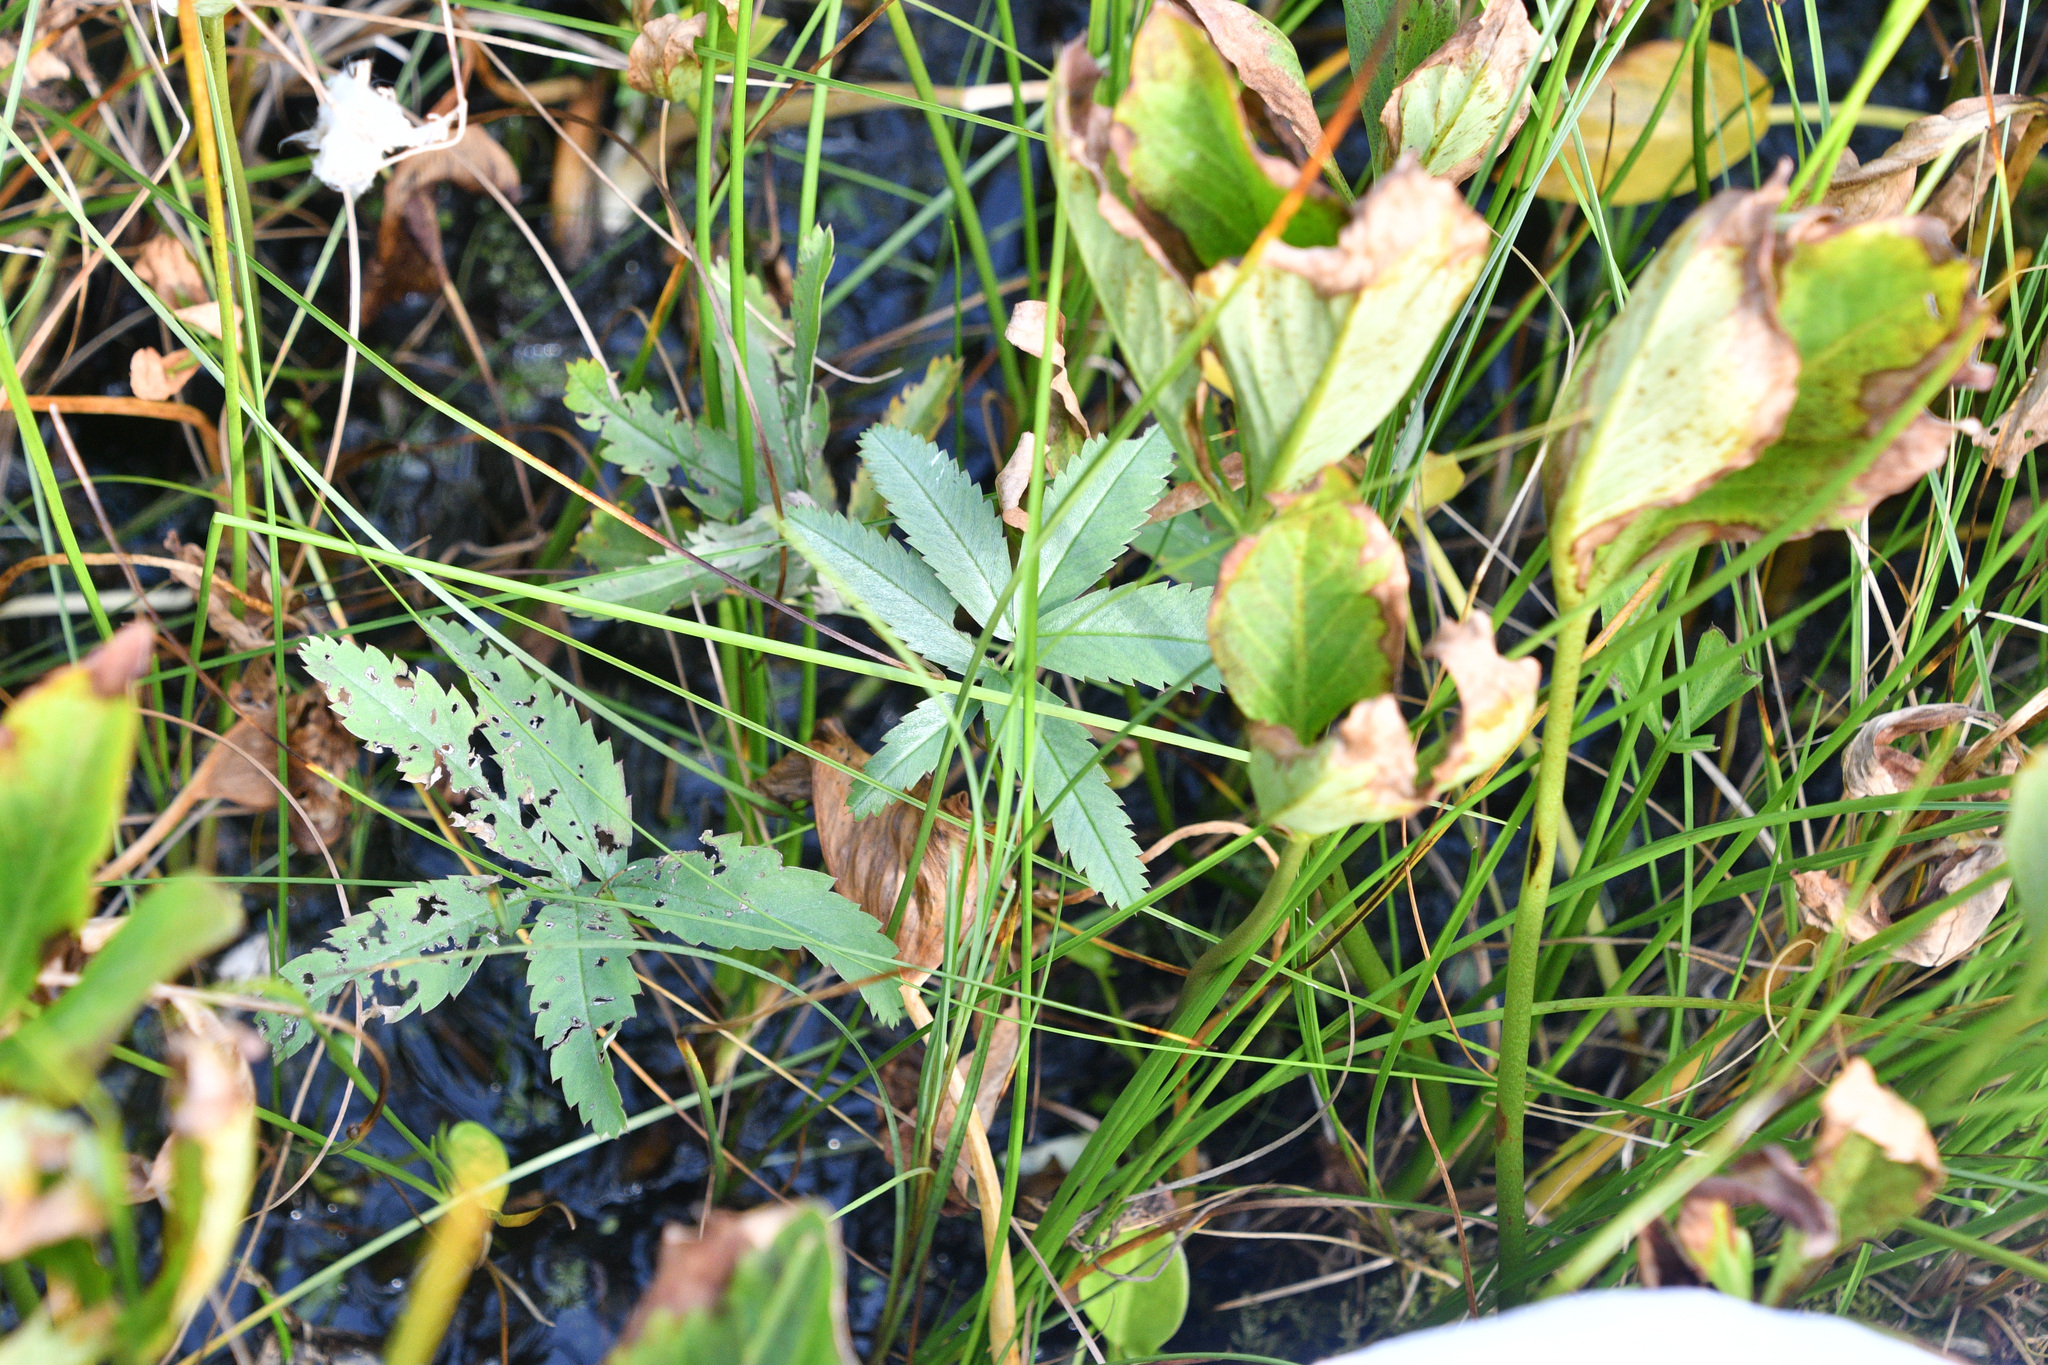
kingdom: Plantae
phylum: Tracheophyta
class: Magnoliopsida
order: Rosales
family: Rosaceae
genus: Comarum
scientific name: Comarum palustre
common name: Marsh cinquefoil
